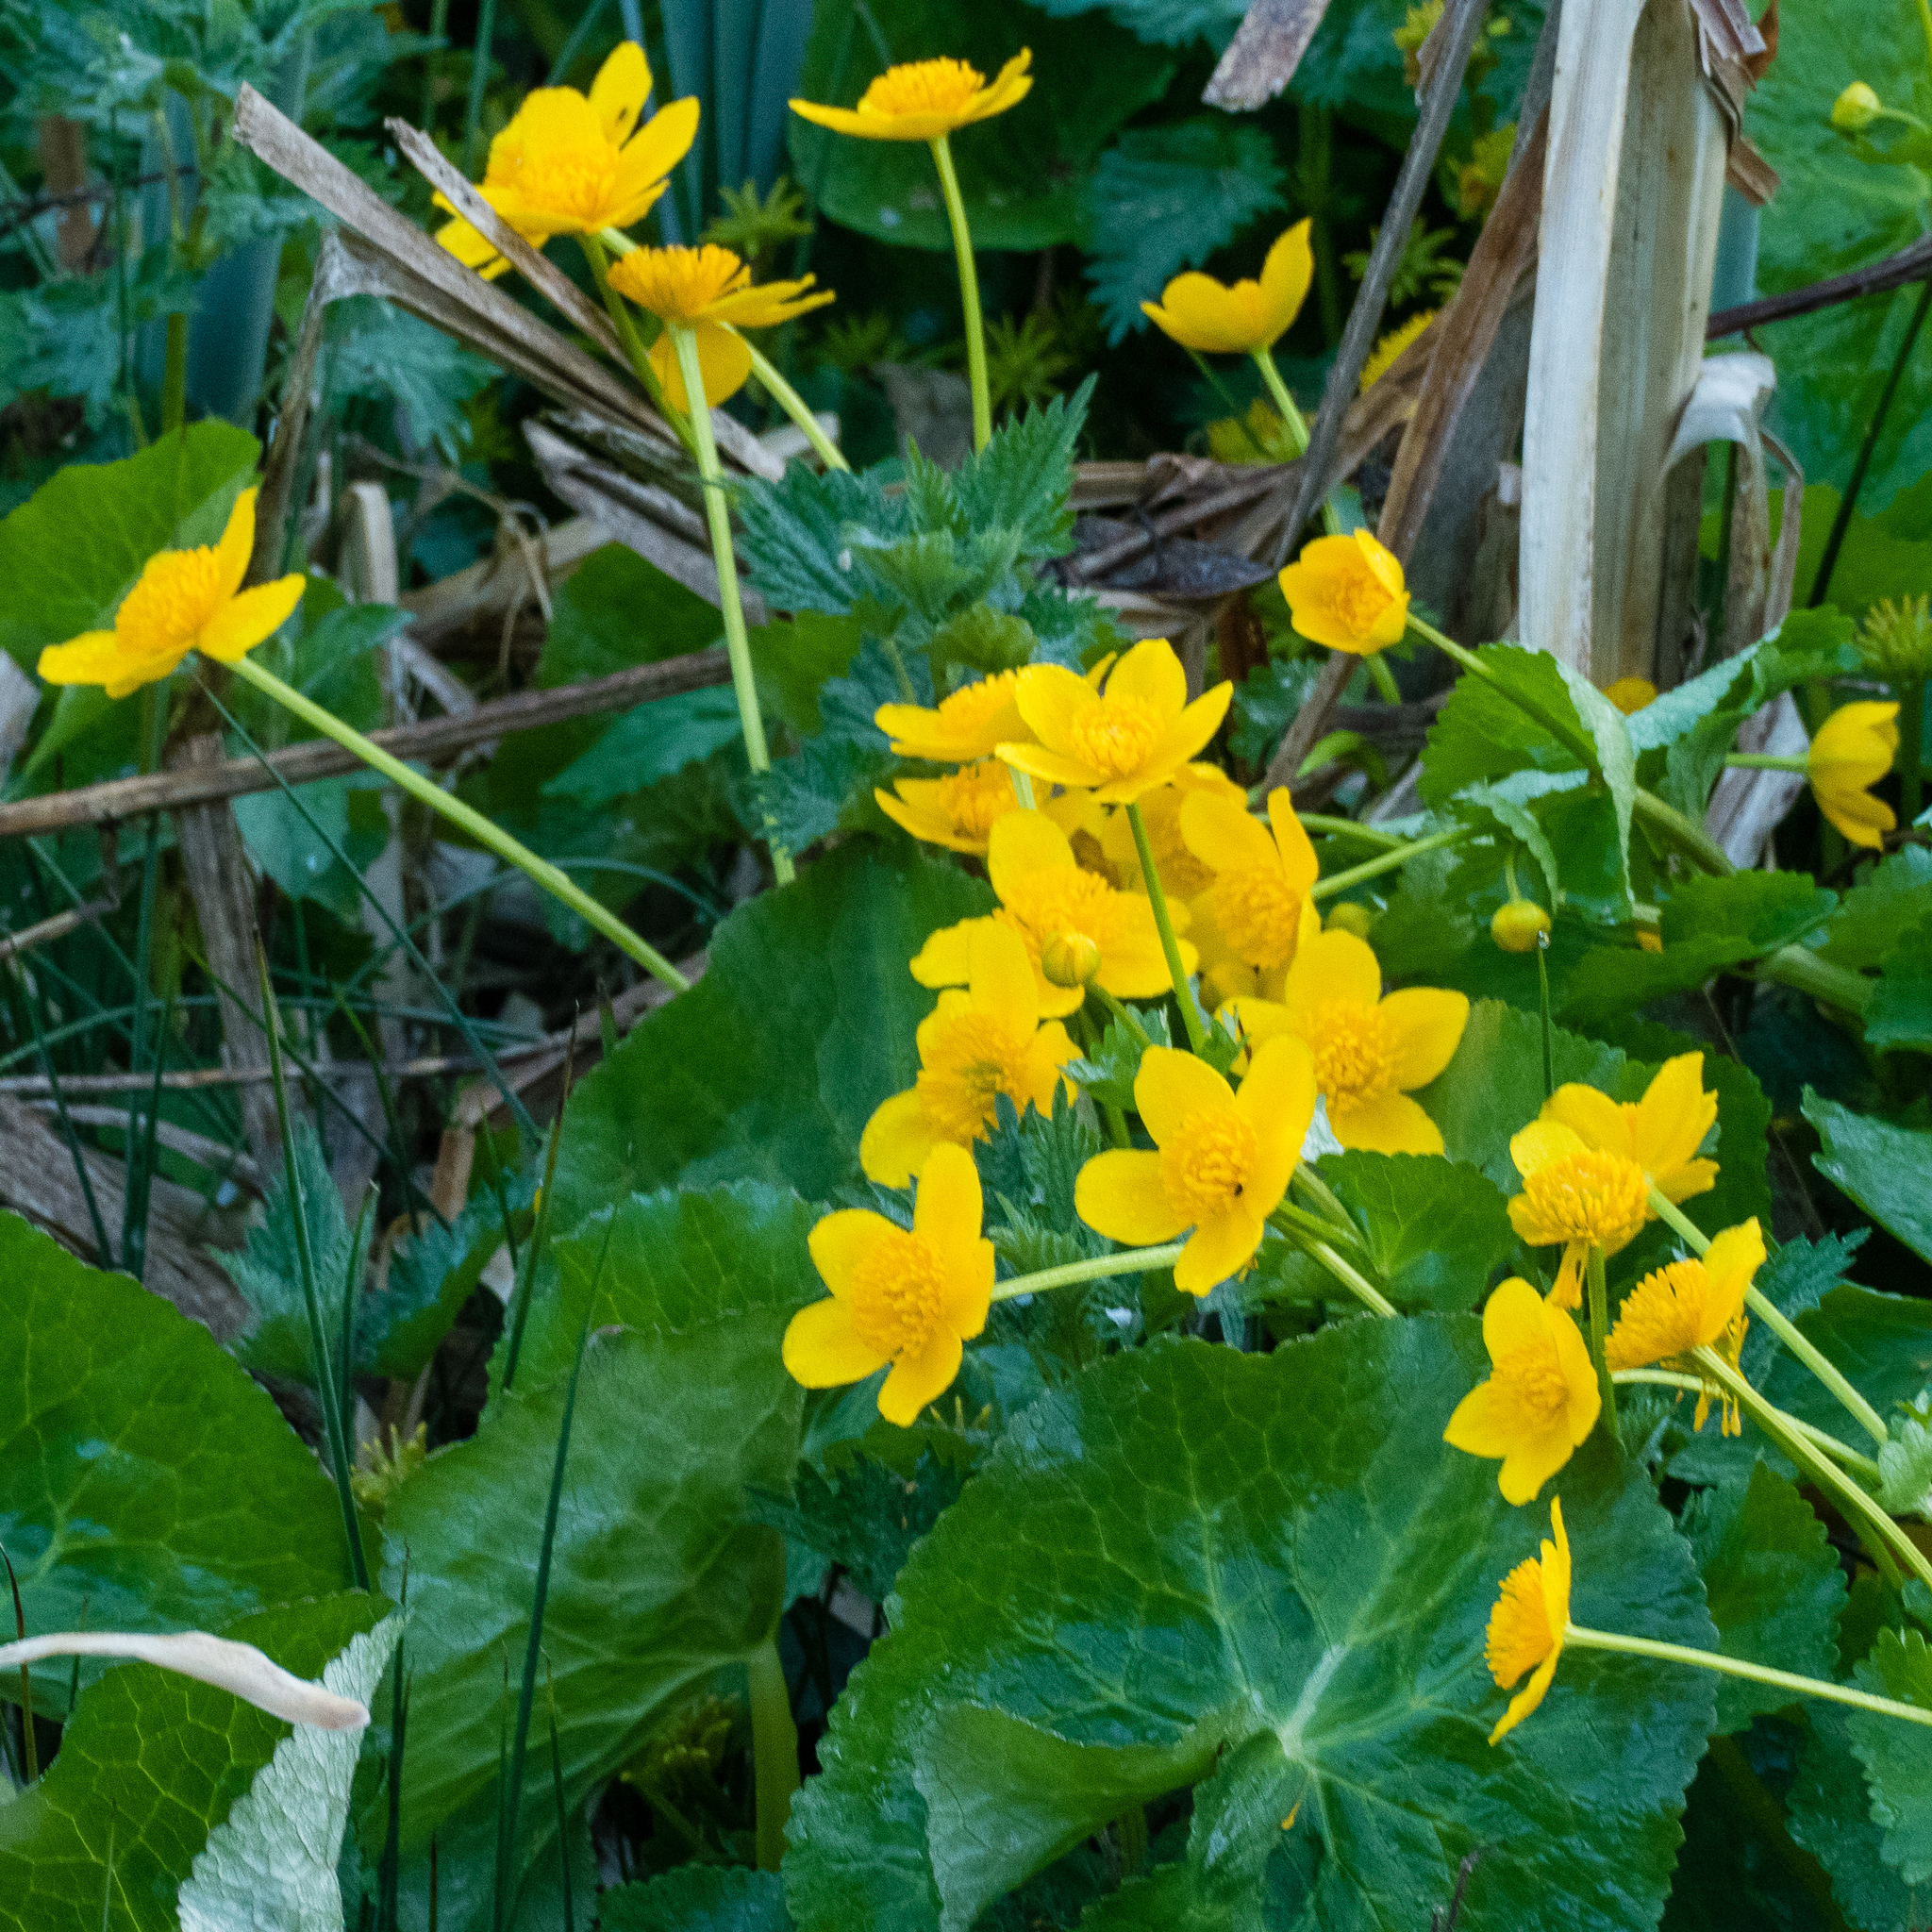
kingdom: Plantae
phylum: Tracheophyta
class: Magnoliopsida
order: Ranunculales
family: Ranunculaceae
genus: Caltha
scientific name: Caltha palustris
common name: Marsh marigold
